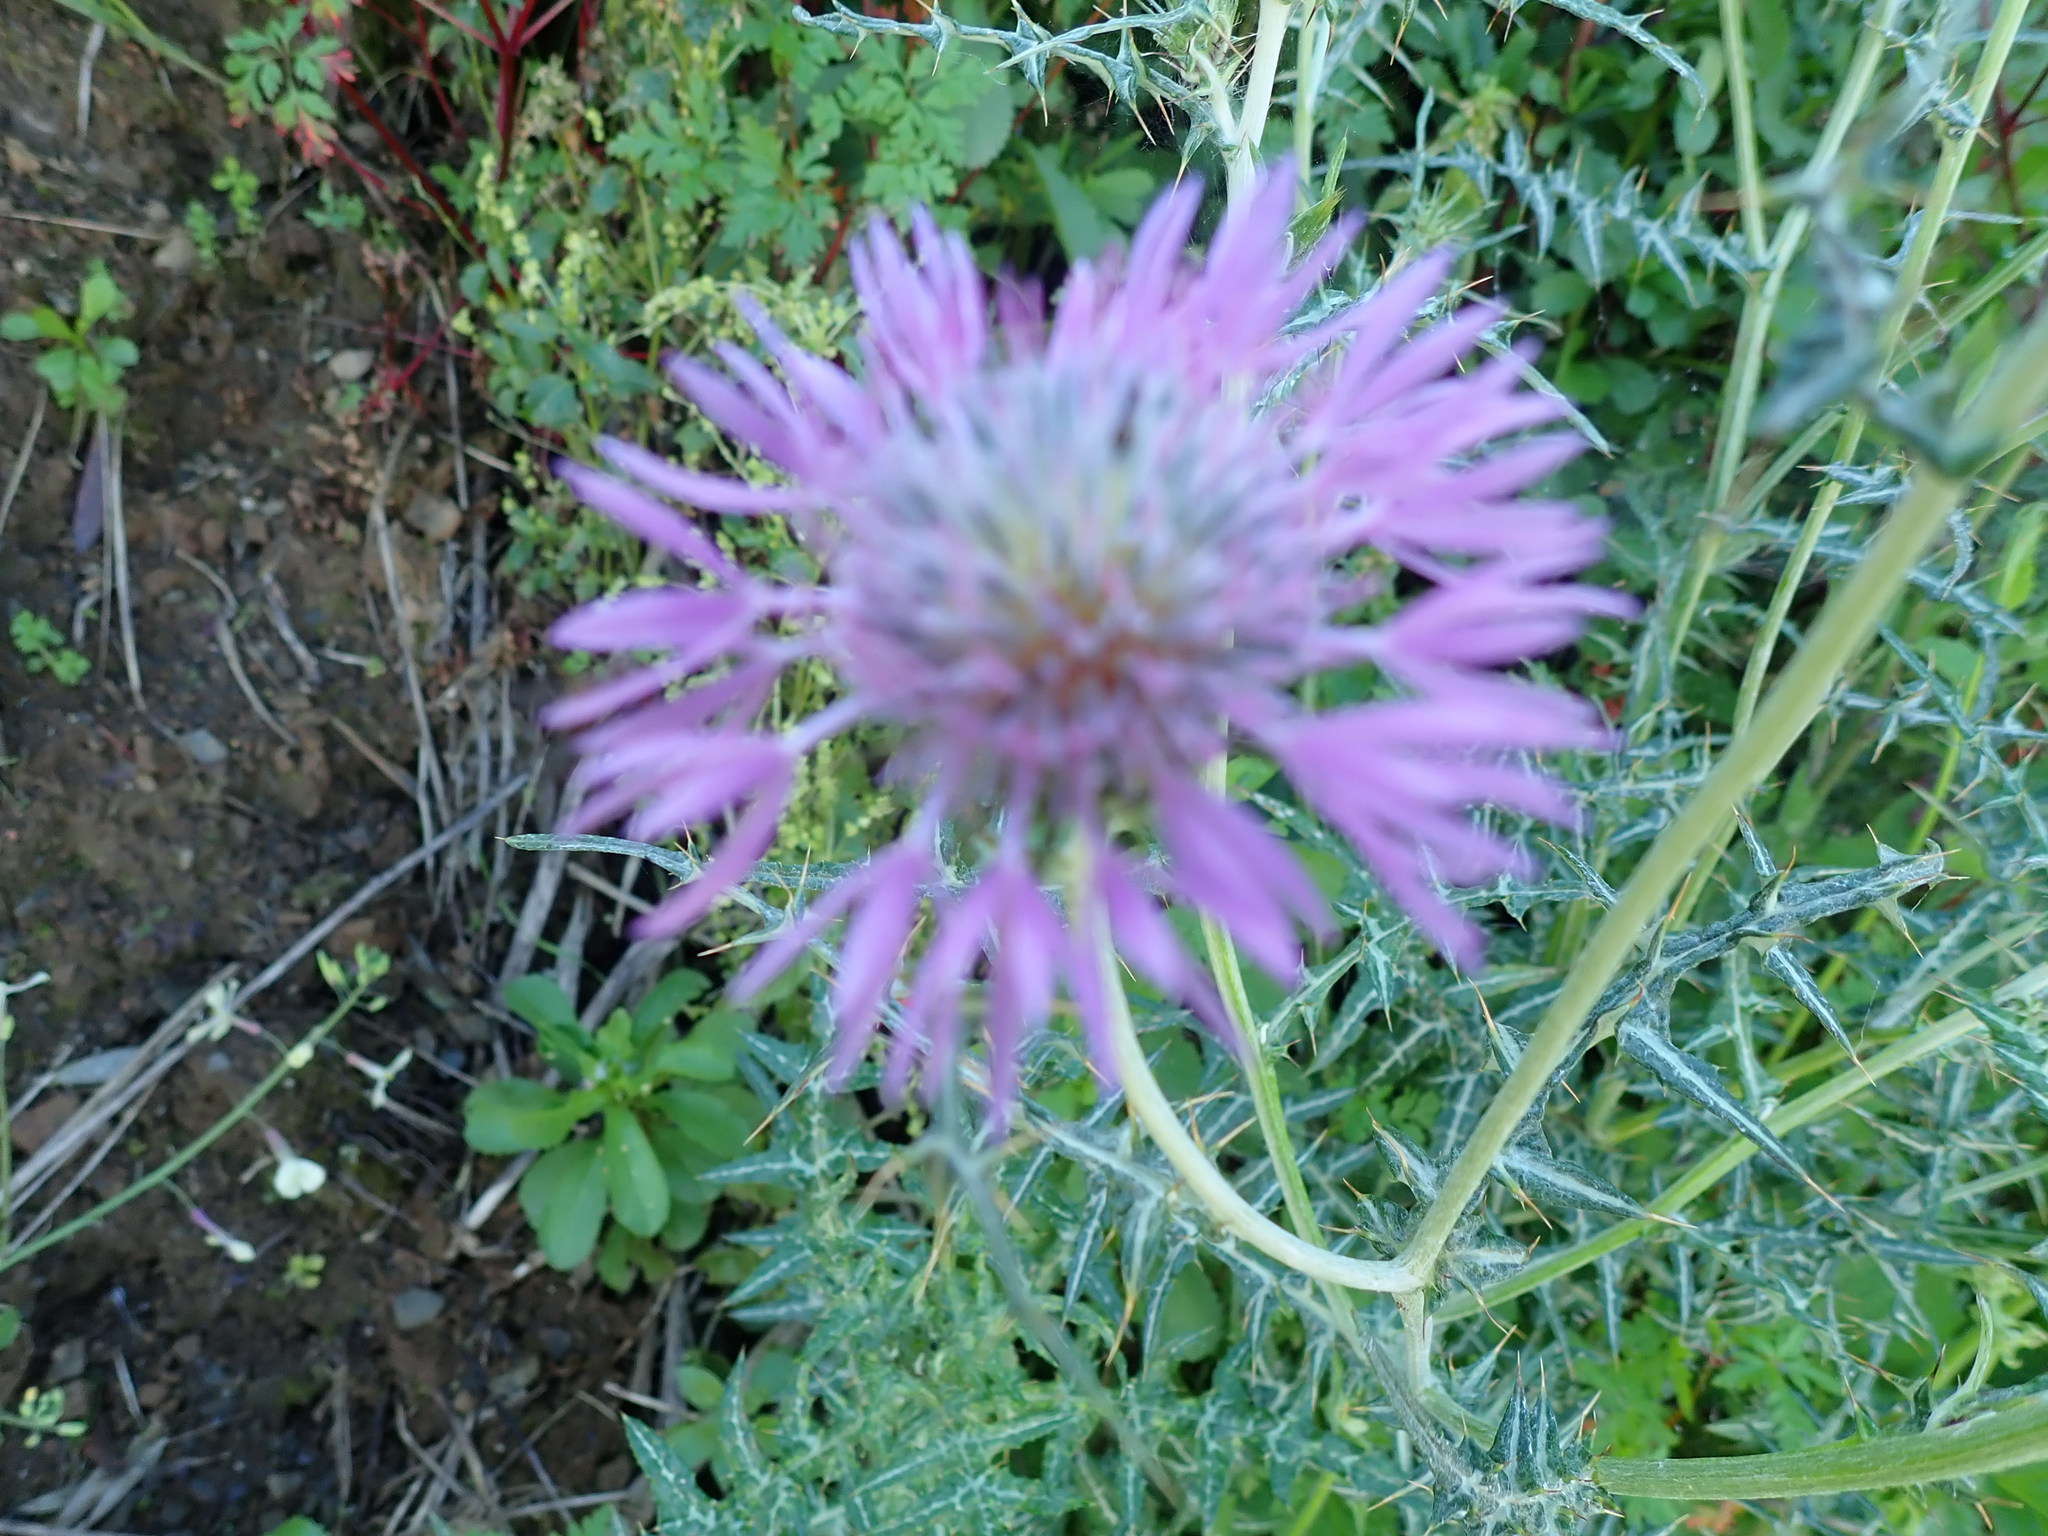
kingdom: Plantae
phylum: Tracheophyta
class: Magnoliopsida
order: Asterales
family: Asteraceae
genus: Galactites
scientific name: Galactites tomentosa
